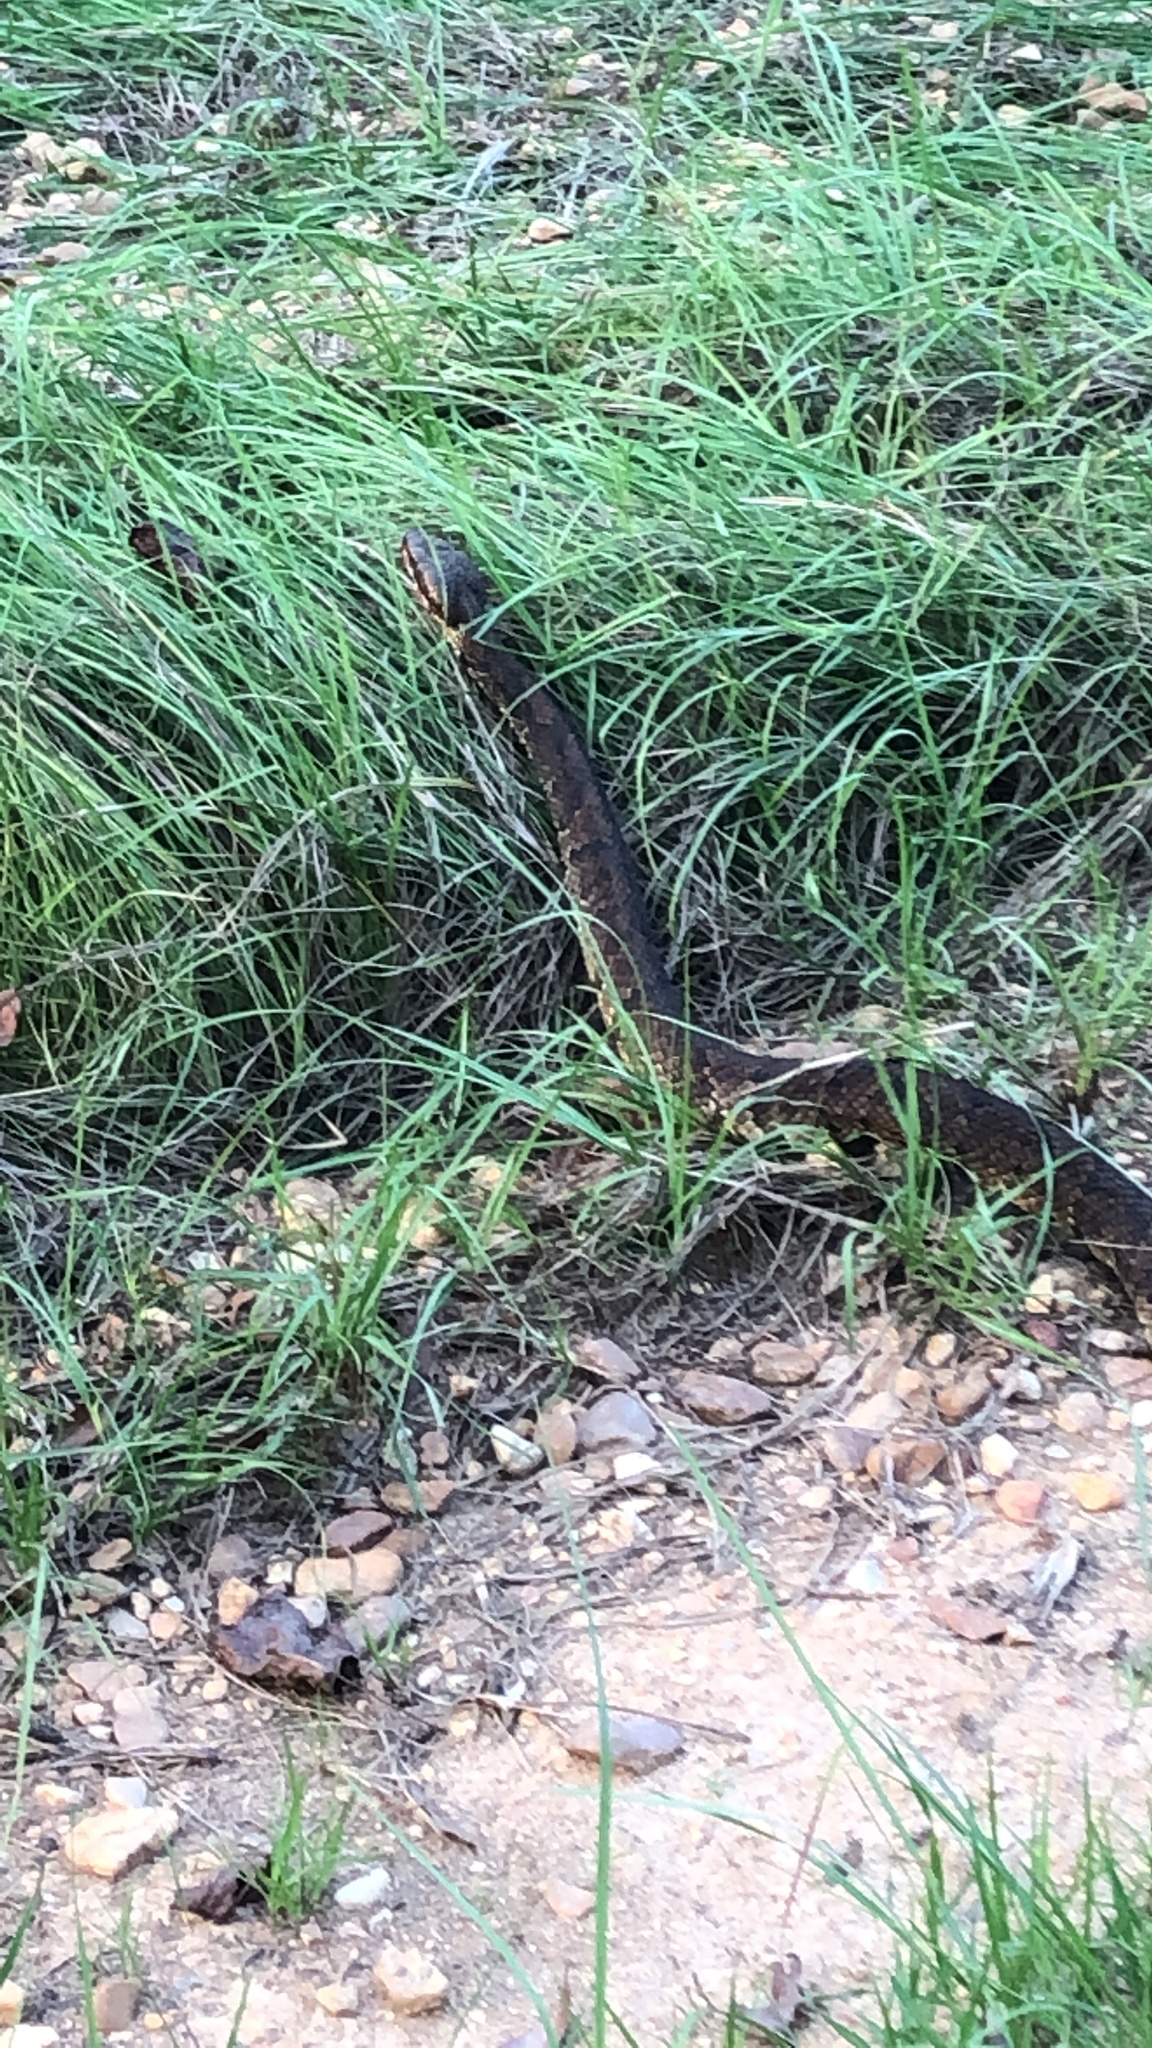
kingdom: Animalia
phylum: Chordata
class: Squamata
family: Viperidae
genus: Agkistrodon
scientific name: Agkistrodon piscivorus
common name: Cottonmouth
